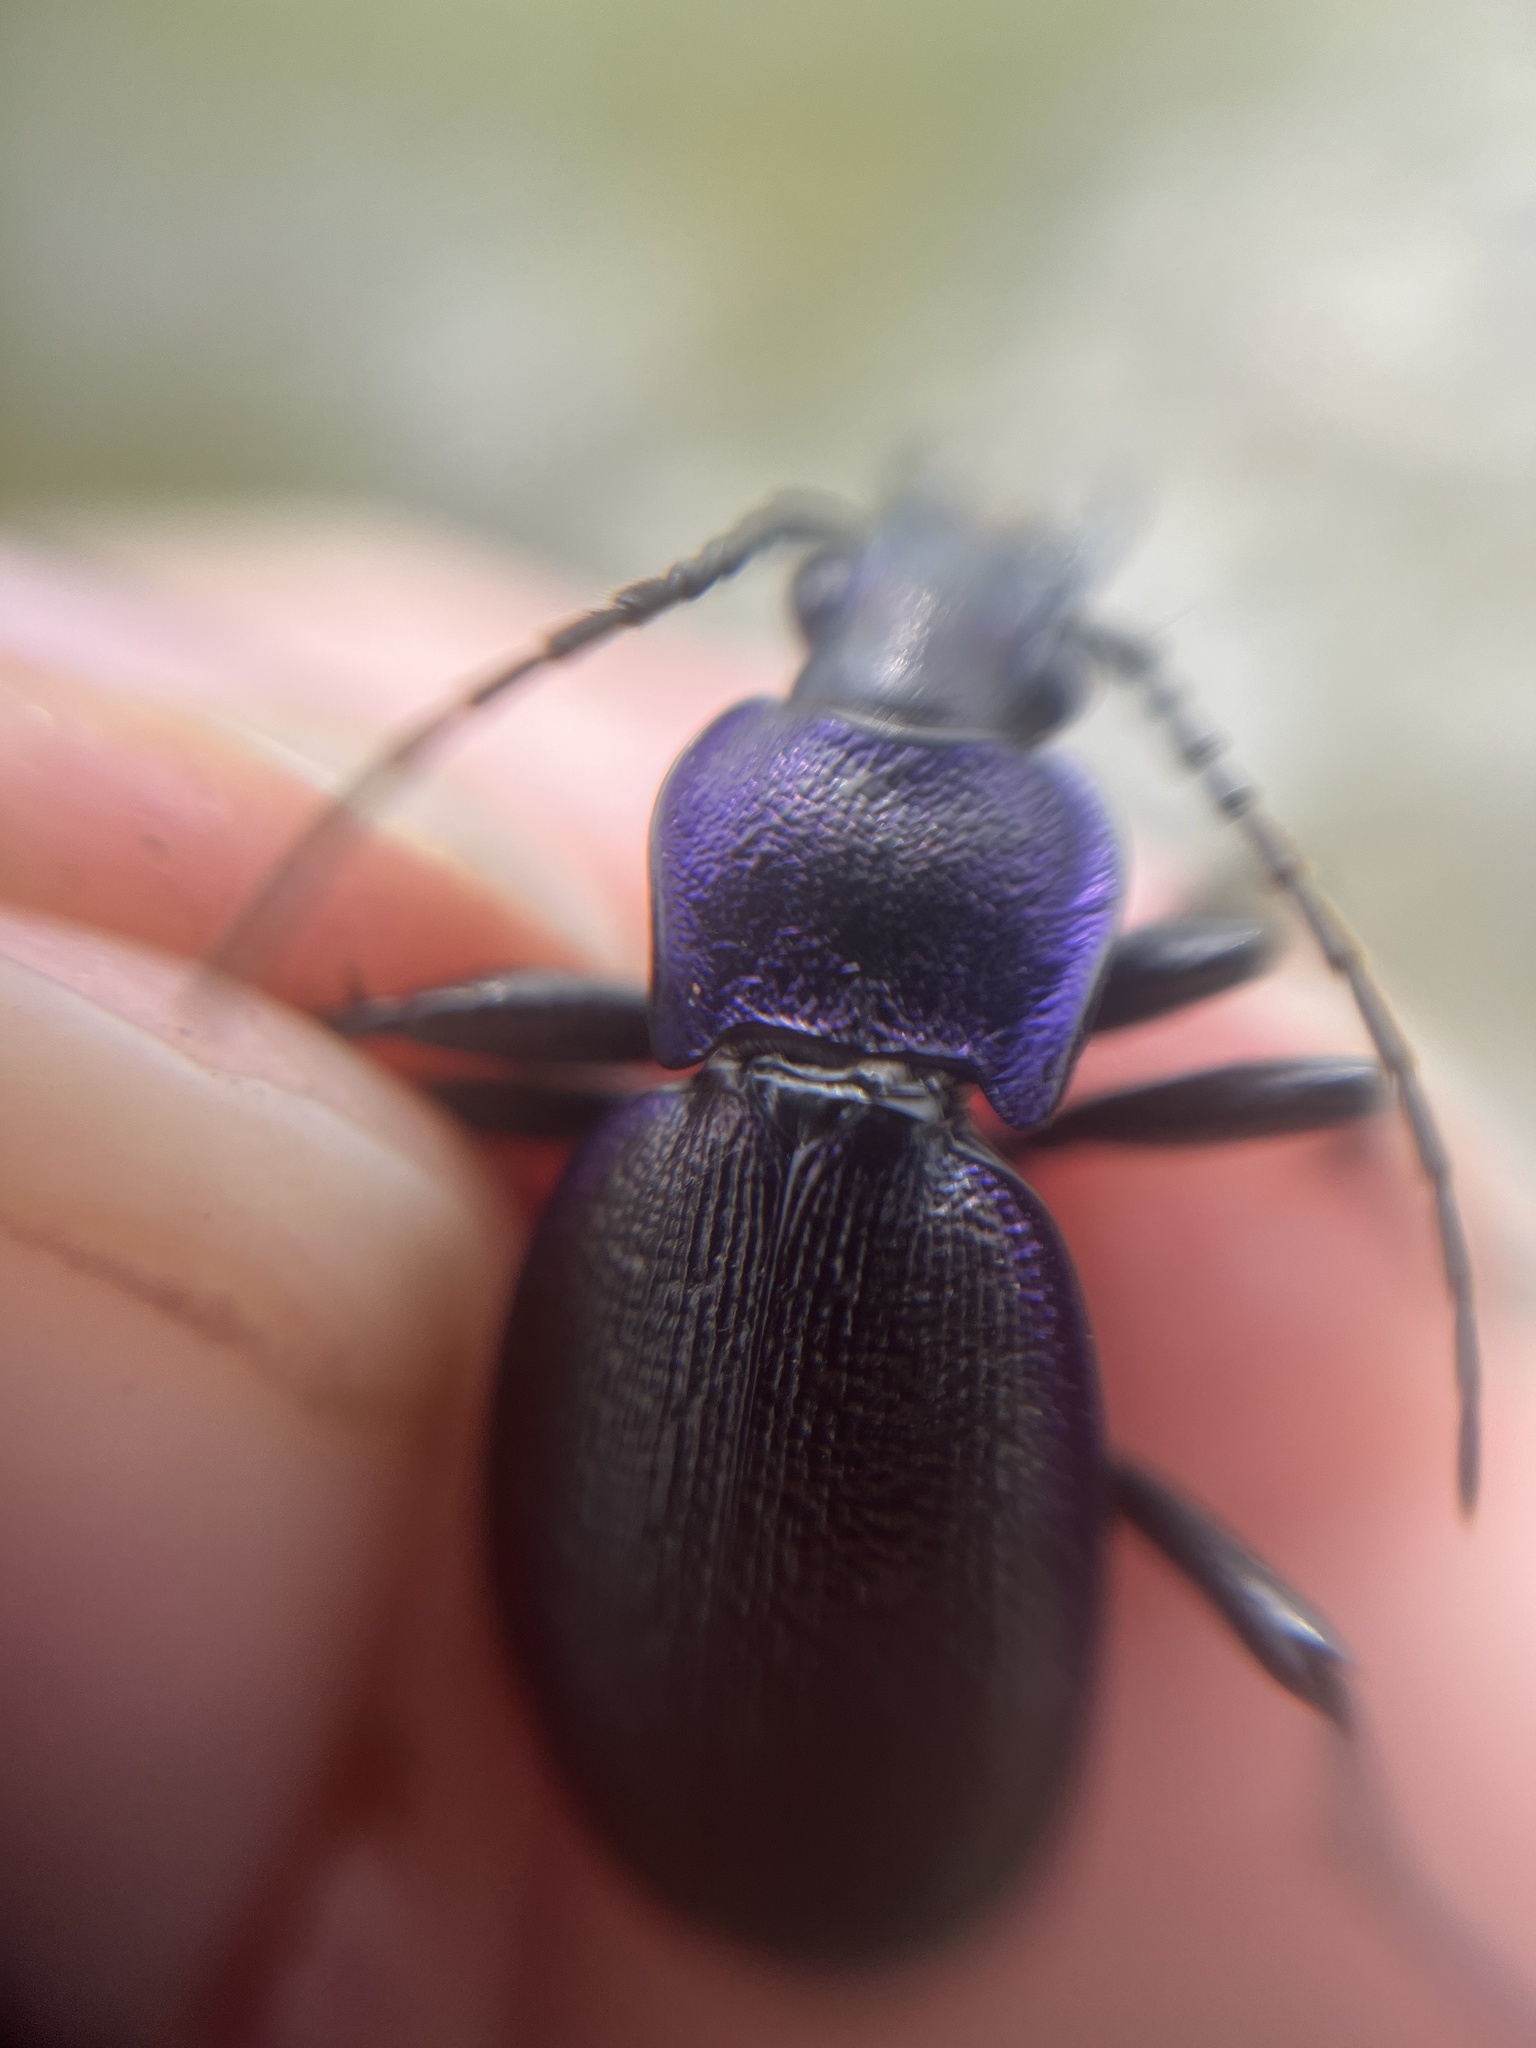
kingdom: Animalia
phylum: Arthropoda
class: Insecta
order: Coleoptera
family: Carabidae
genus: Carabus
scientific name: Carabus problematicus
